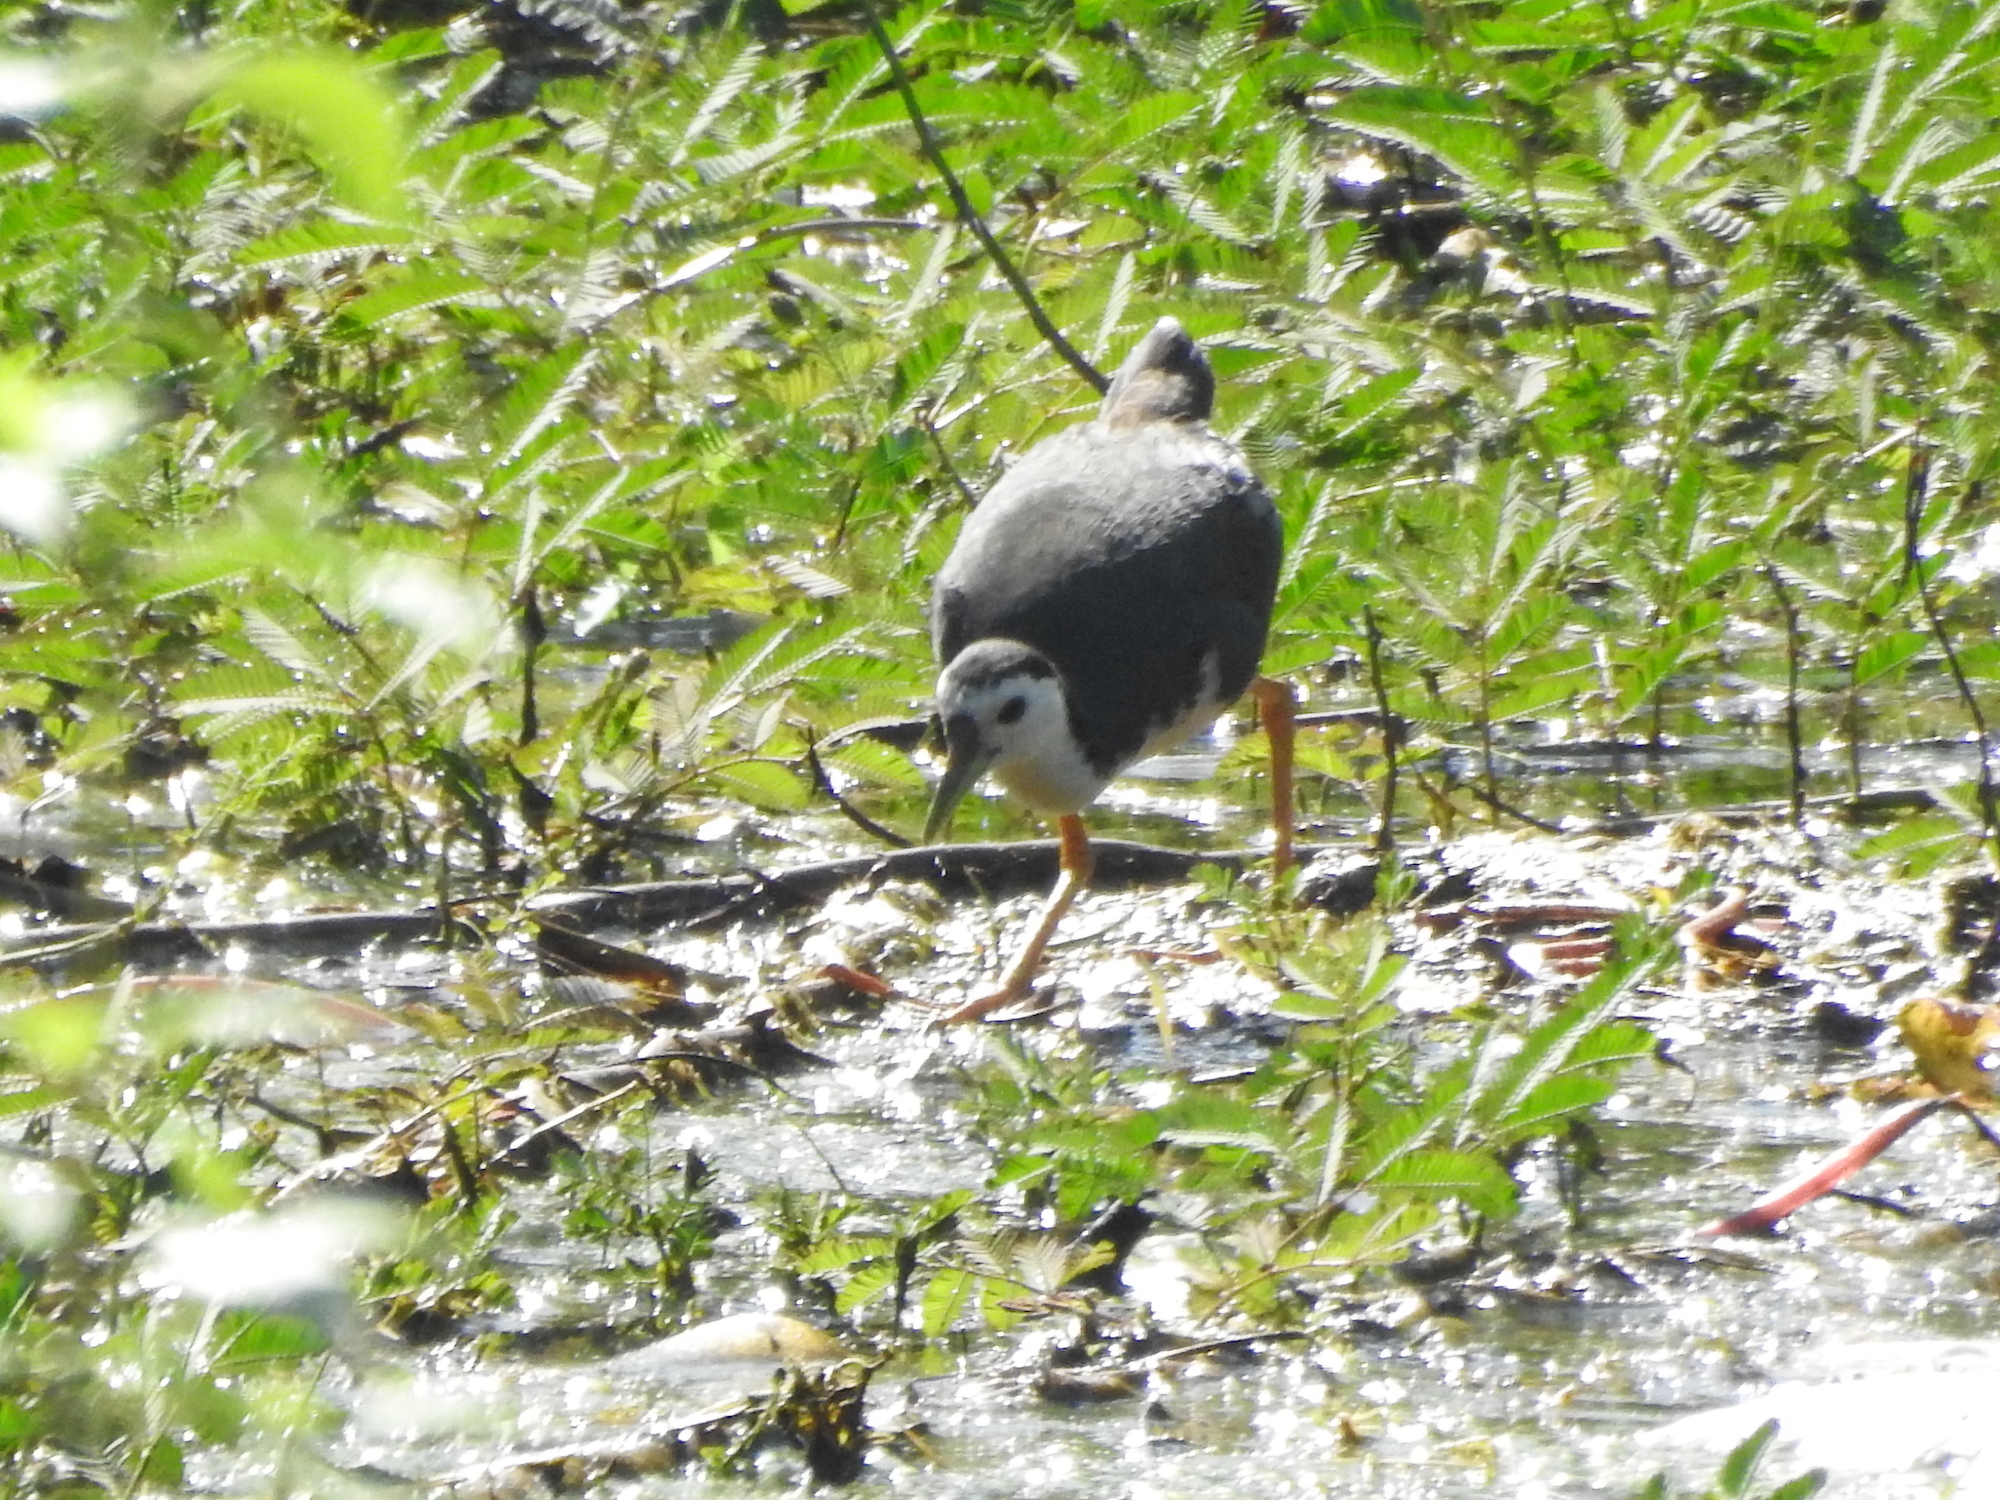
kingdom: Animalia
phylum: Chordata
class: Aves
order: Gruiformes
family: Rallidae
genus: Amaurornis
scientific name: Amaurornis phoenicurus
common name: White-breasted waterhen
